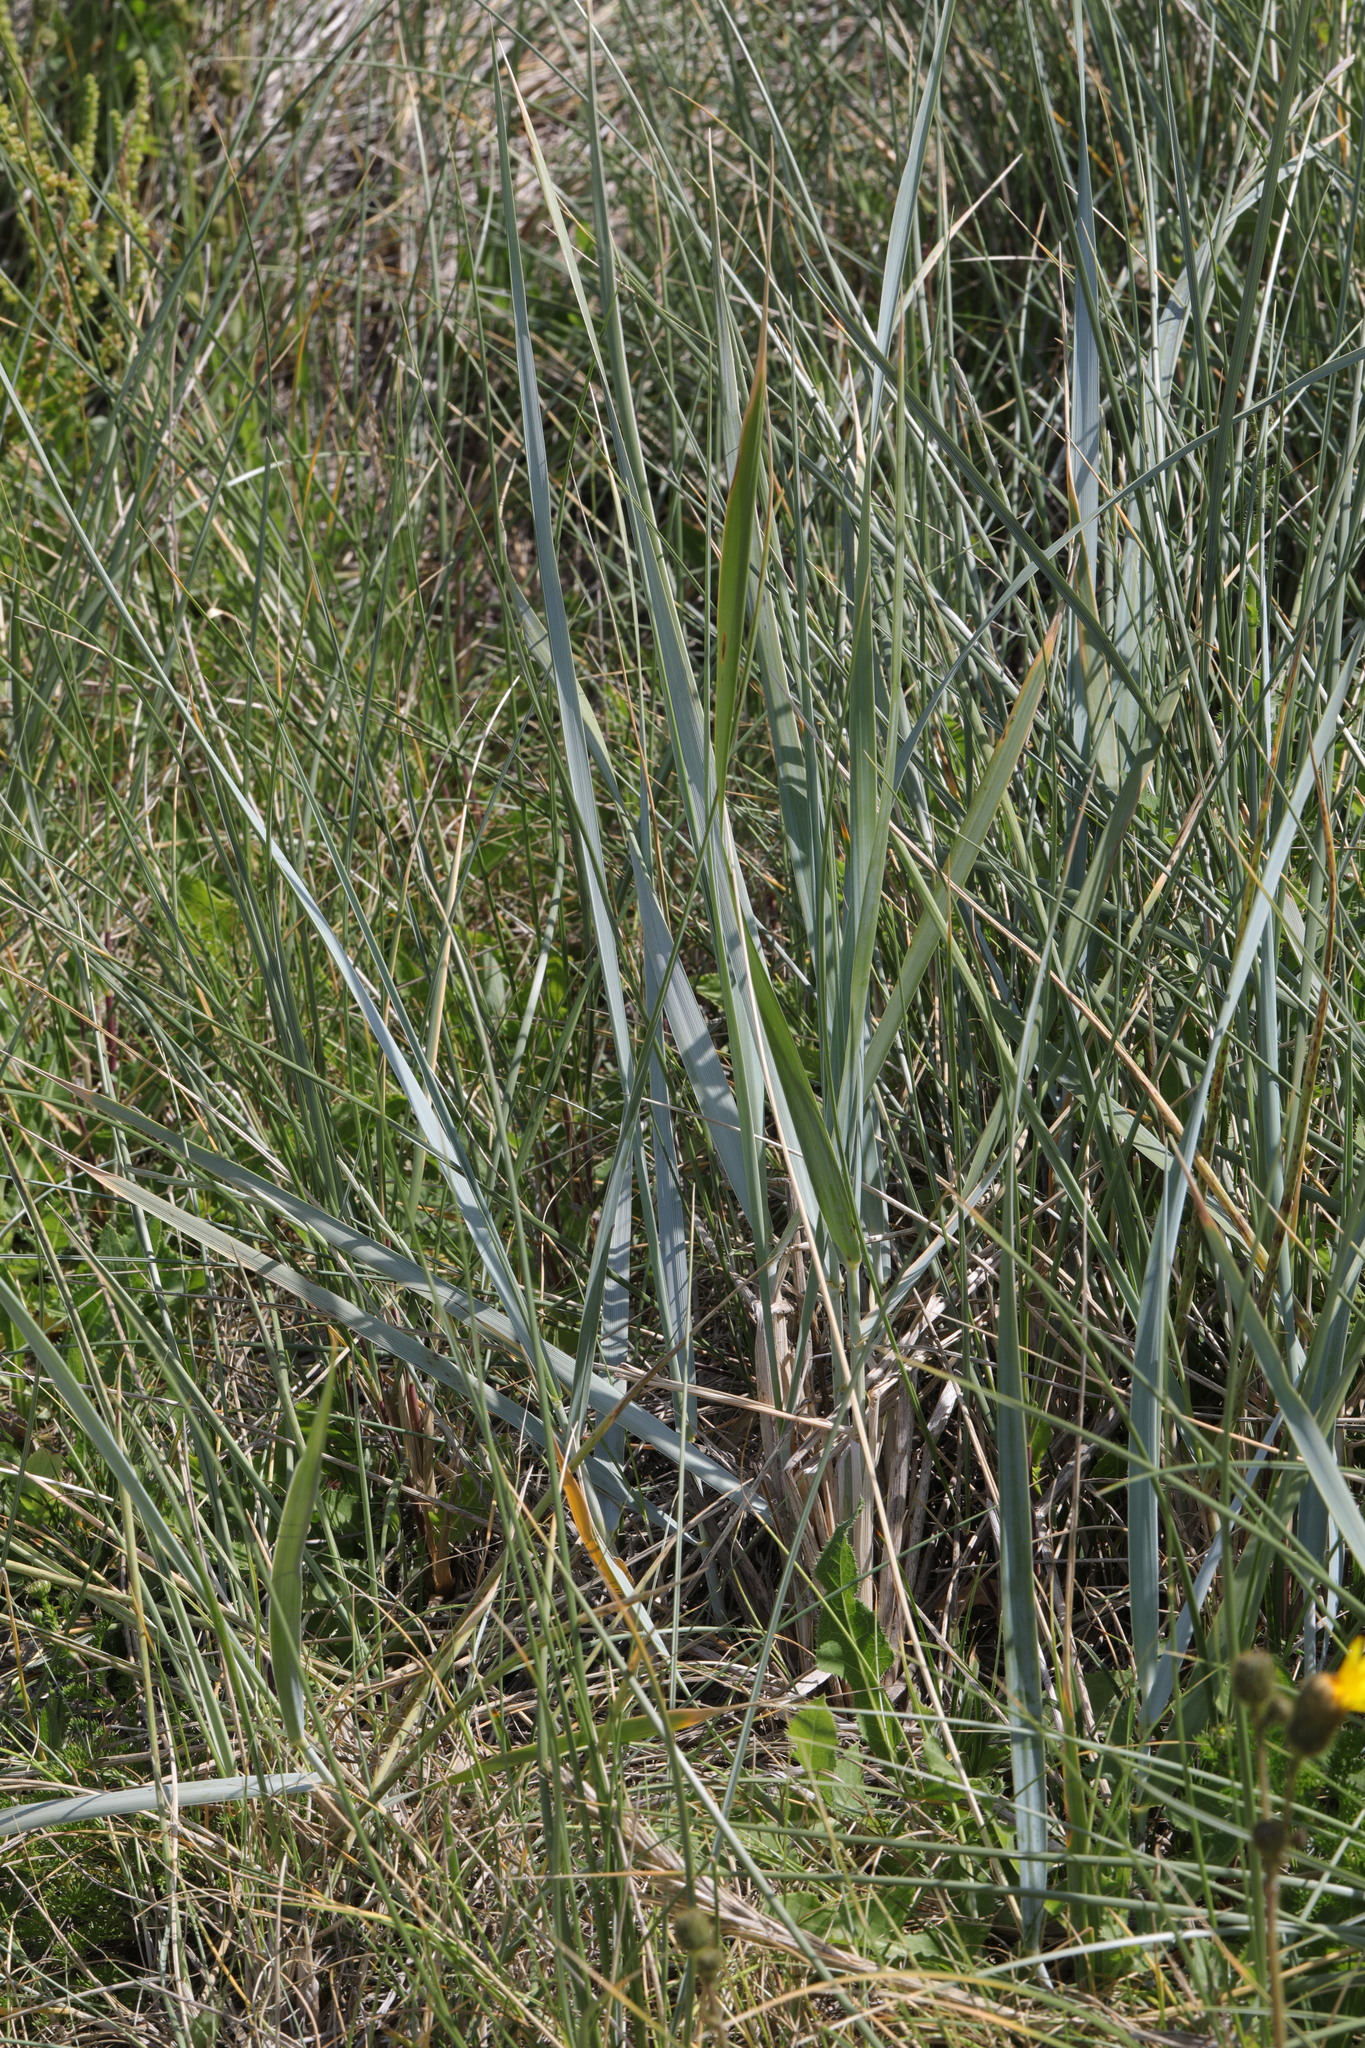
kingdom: Plantae
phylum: Tracheophyta
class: Liliopsida
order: Poales
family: Poaceae
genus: Leymus
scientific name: Leymus arenarius
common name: Lyme-grass
